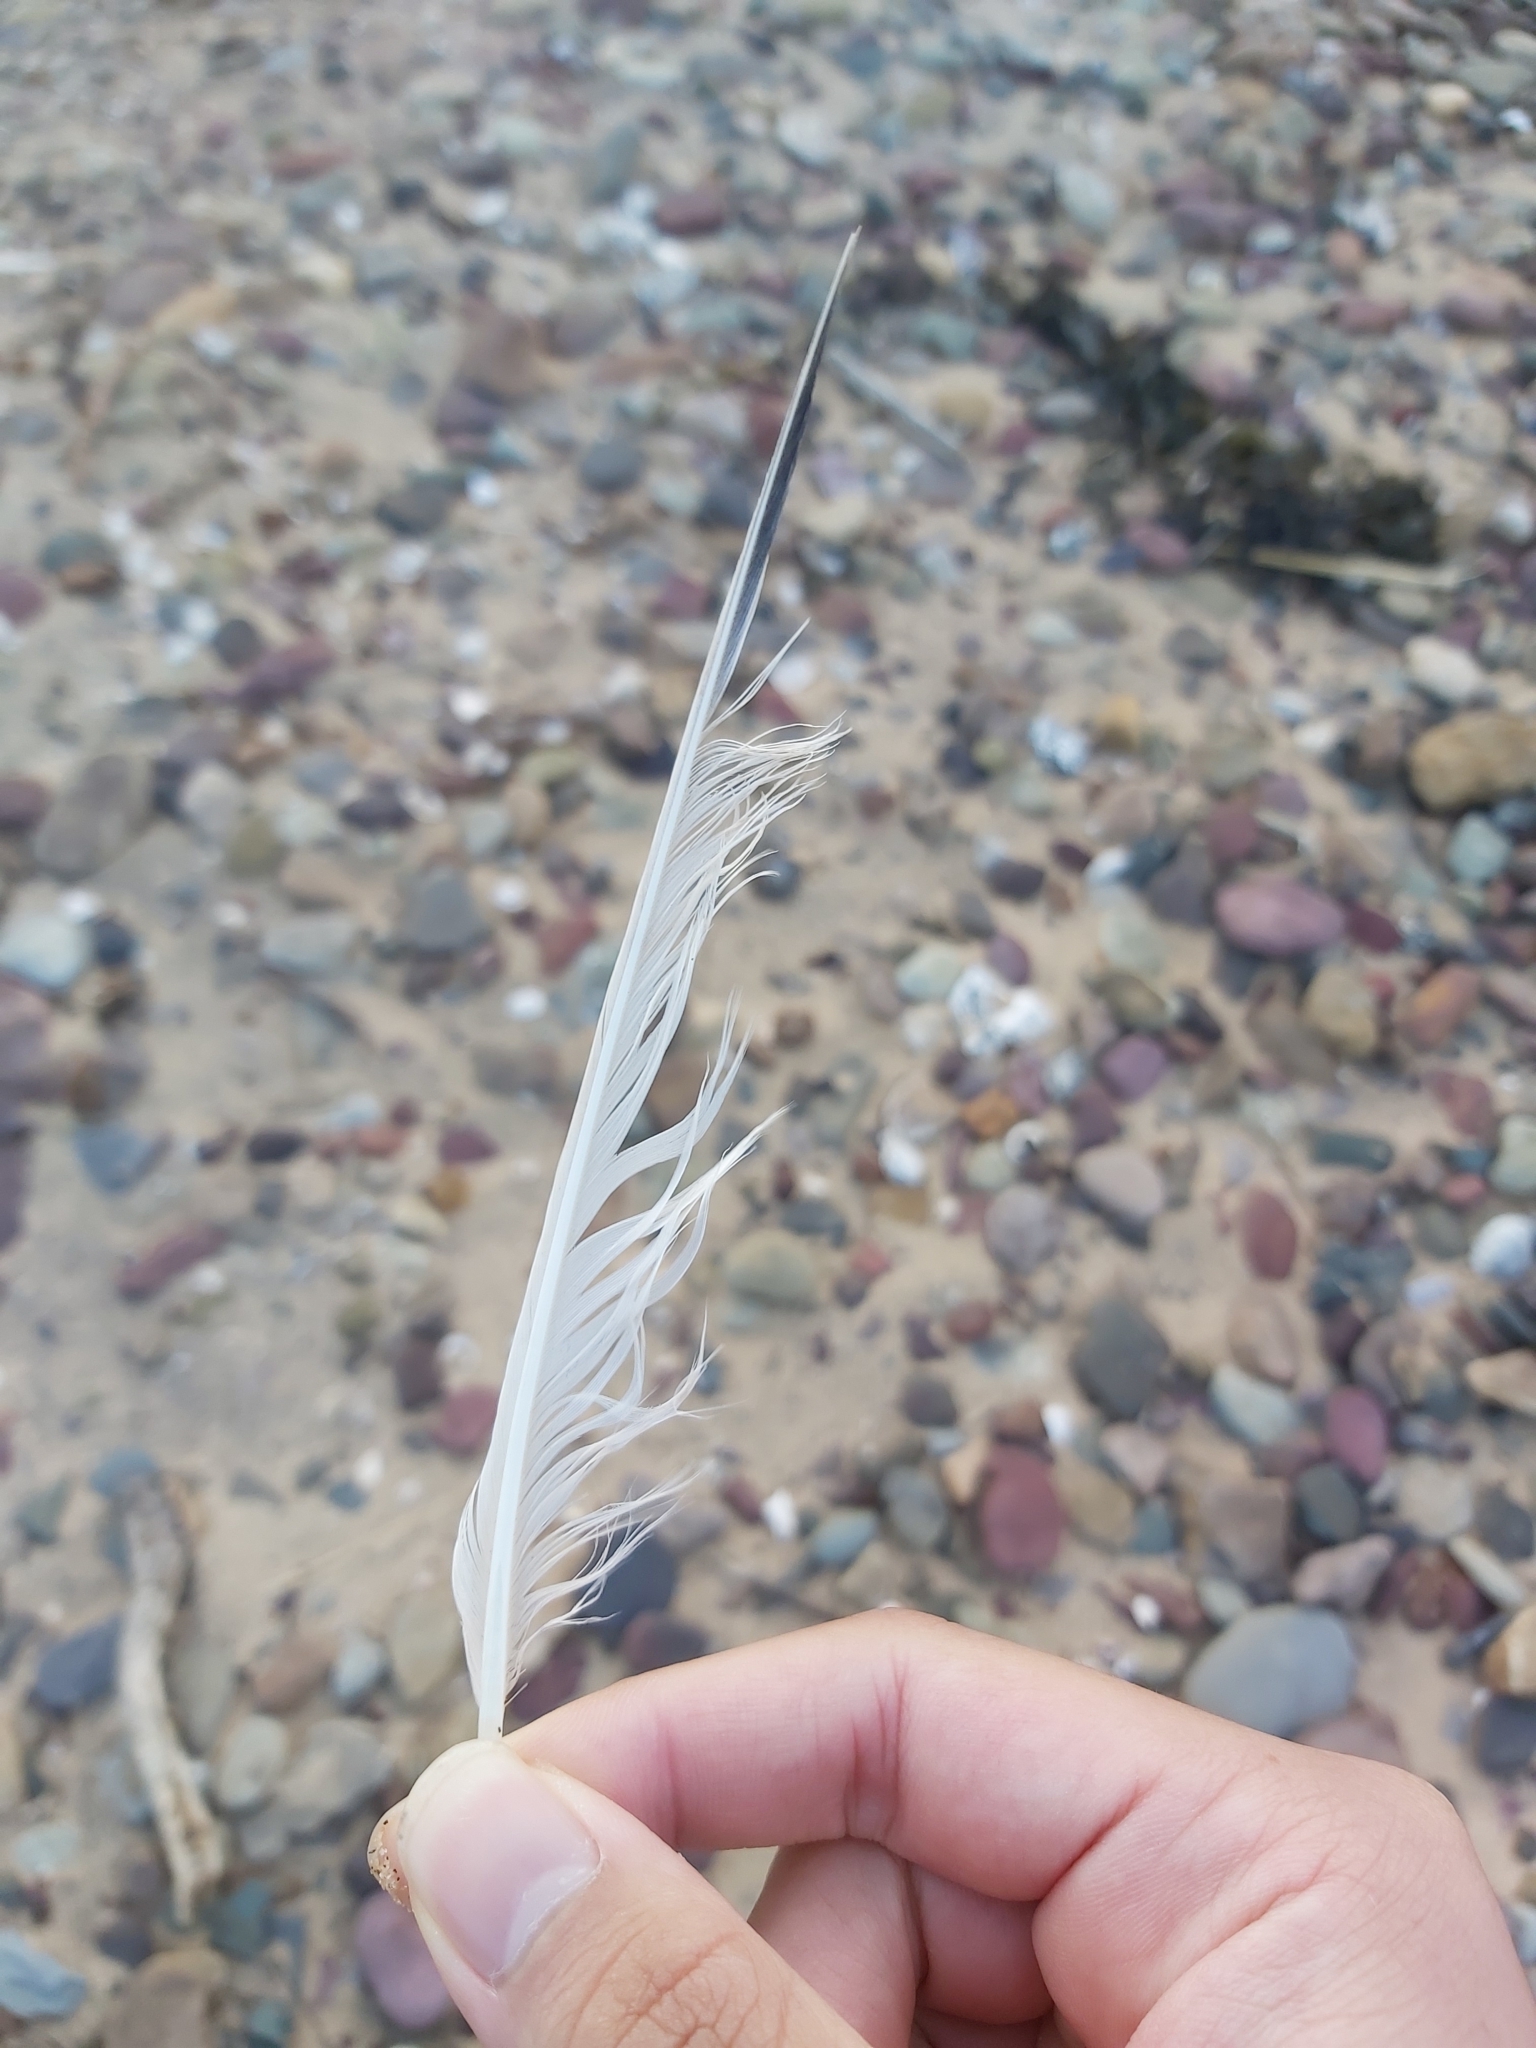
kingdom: Animalia
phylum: Chordata
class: Aves
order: Charadriiformes
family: Laridae
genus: Thalasseus
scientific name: Thalasseus bergii
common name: Greater crested tern
